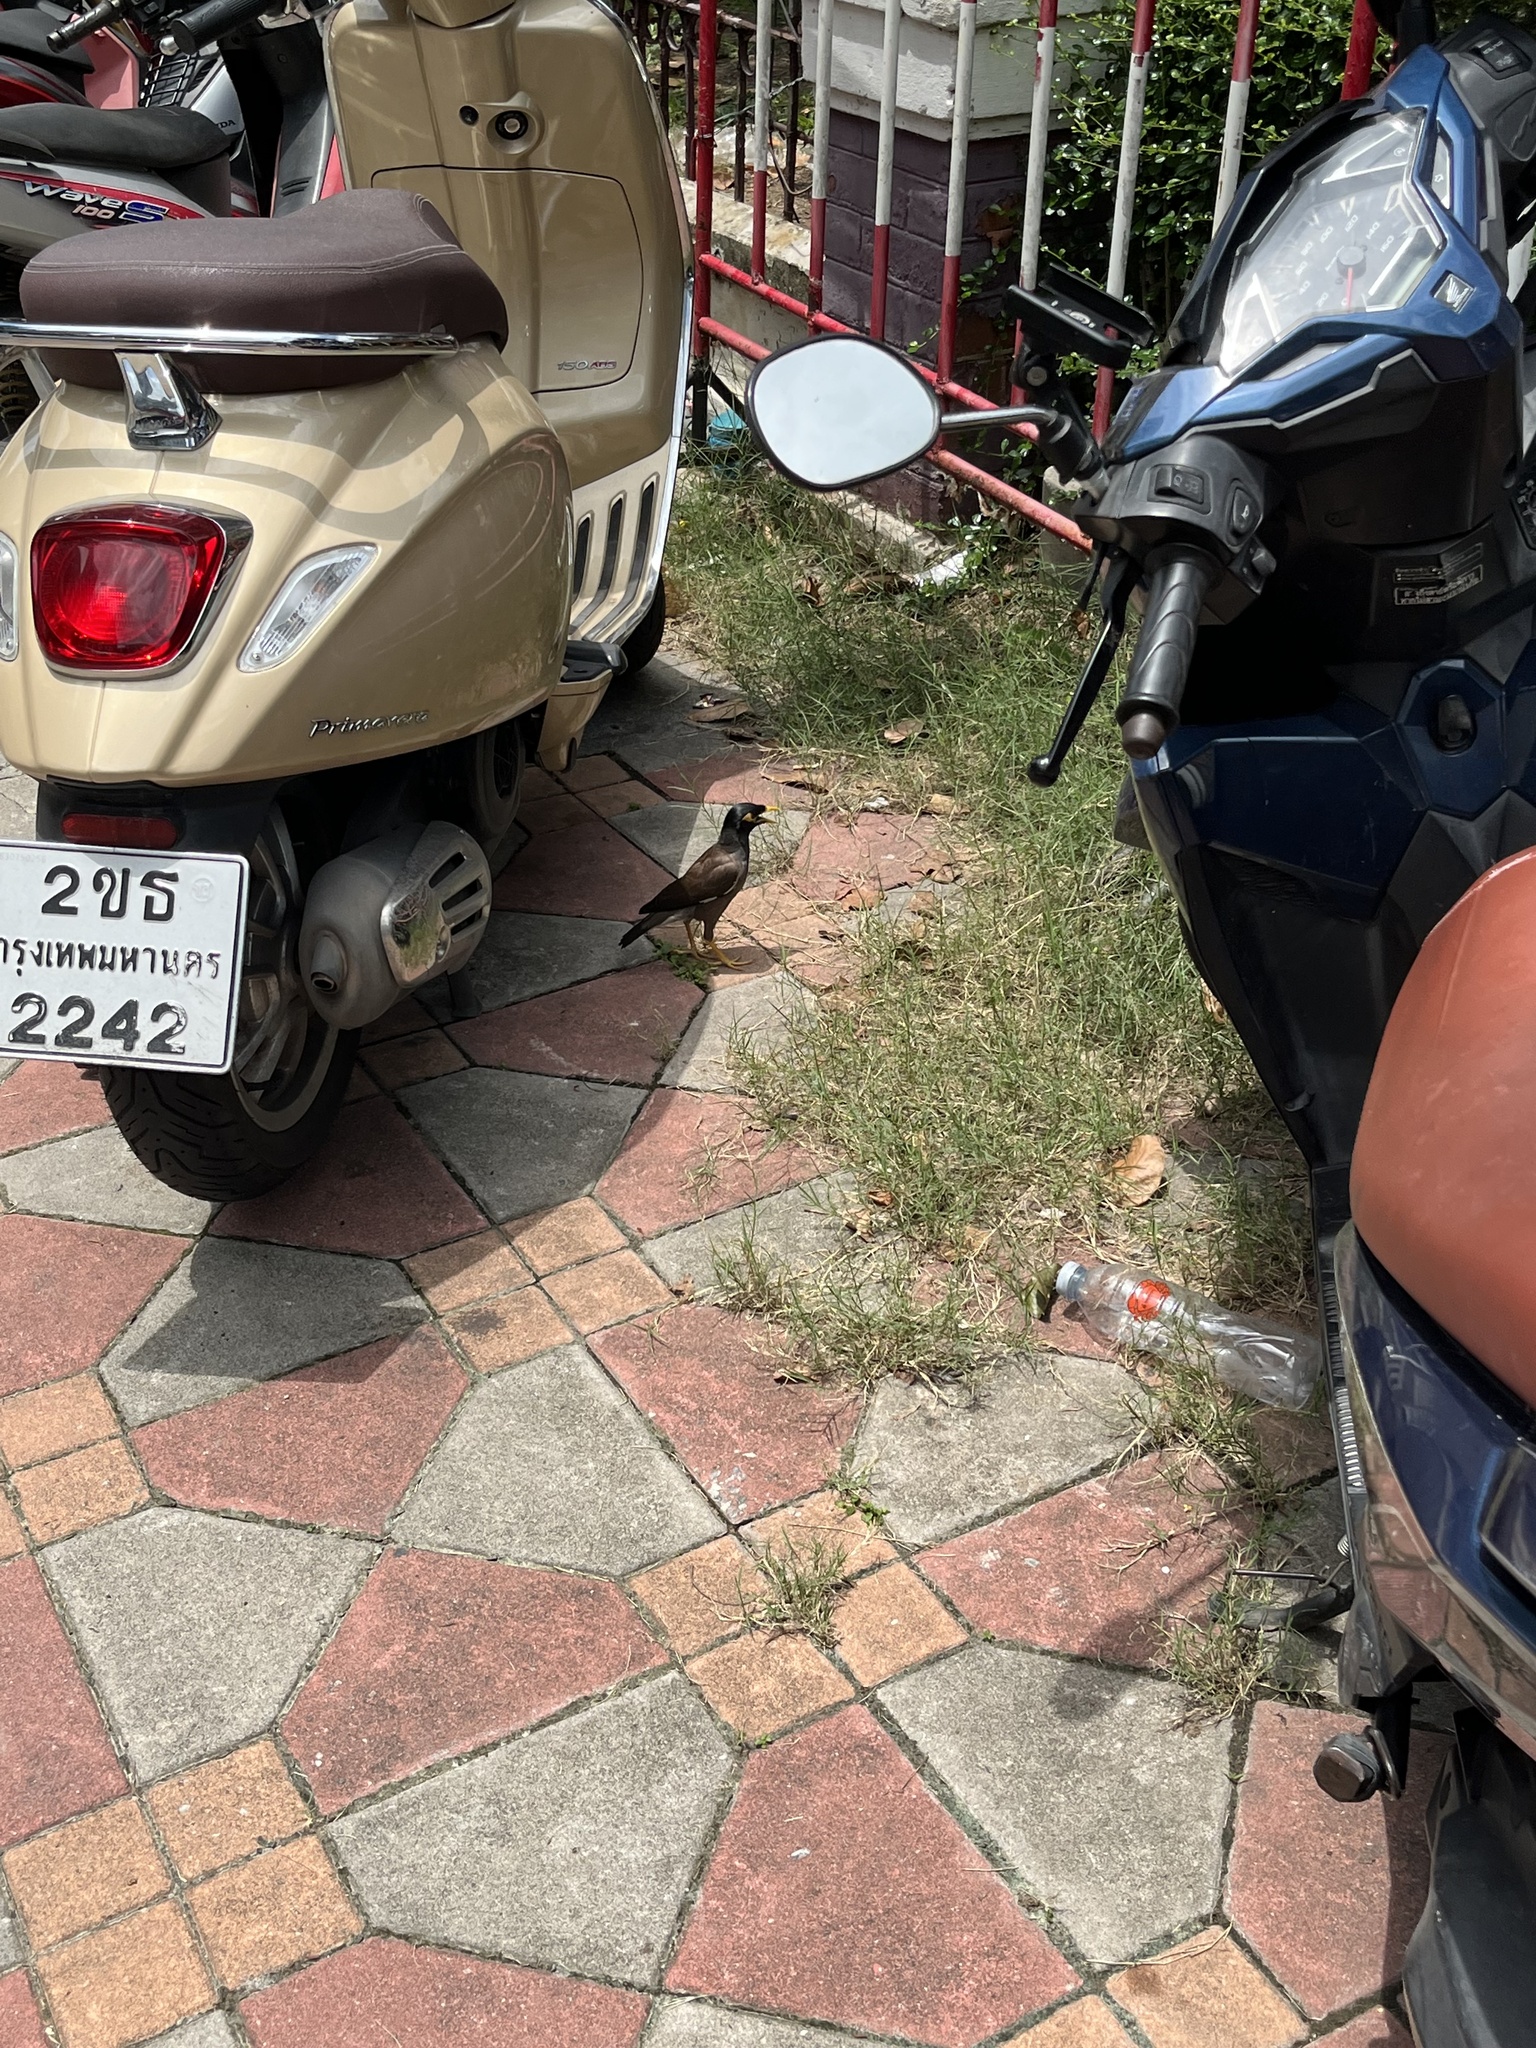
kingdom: Animalia
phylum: Chordata
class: Aves
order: Passeriformes
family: Sturnidae
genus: Acridotheres
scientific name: Acridotheres tristis
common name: Common myna
